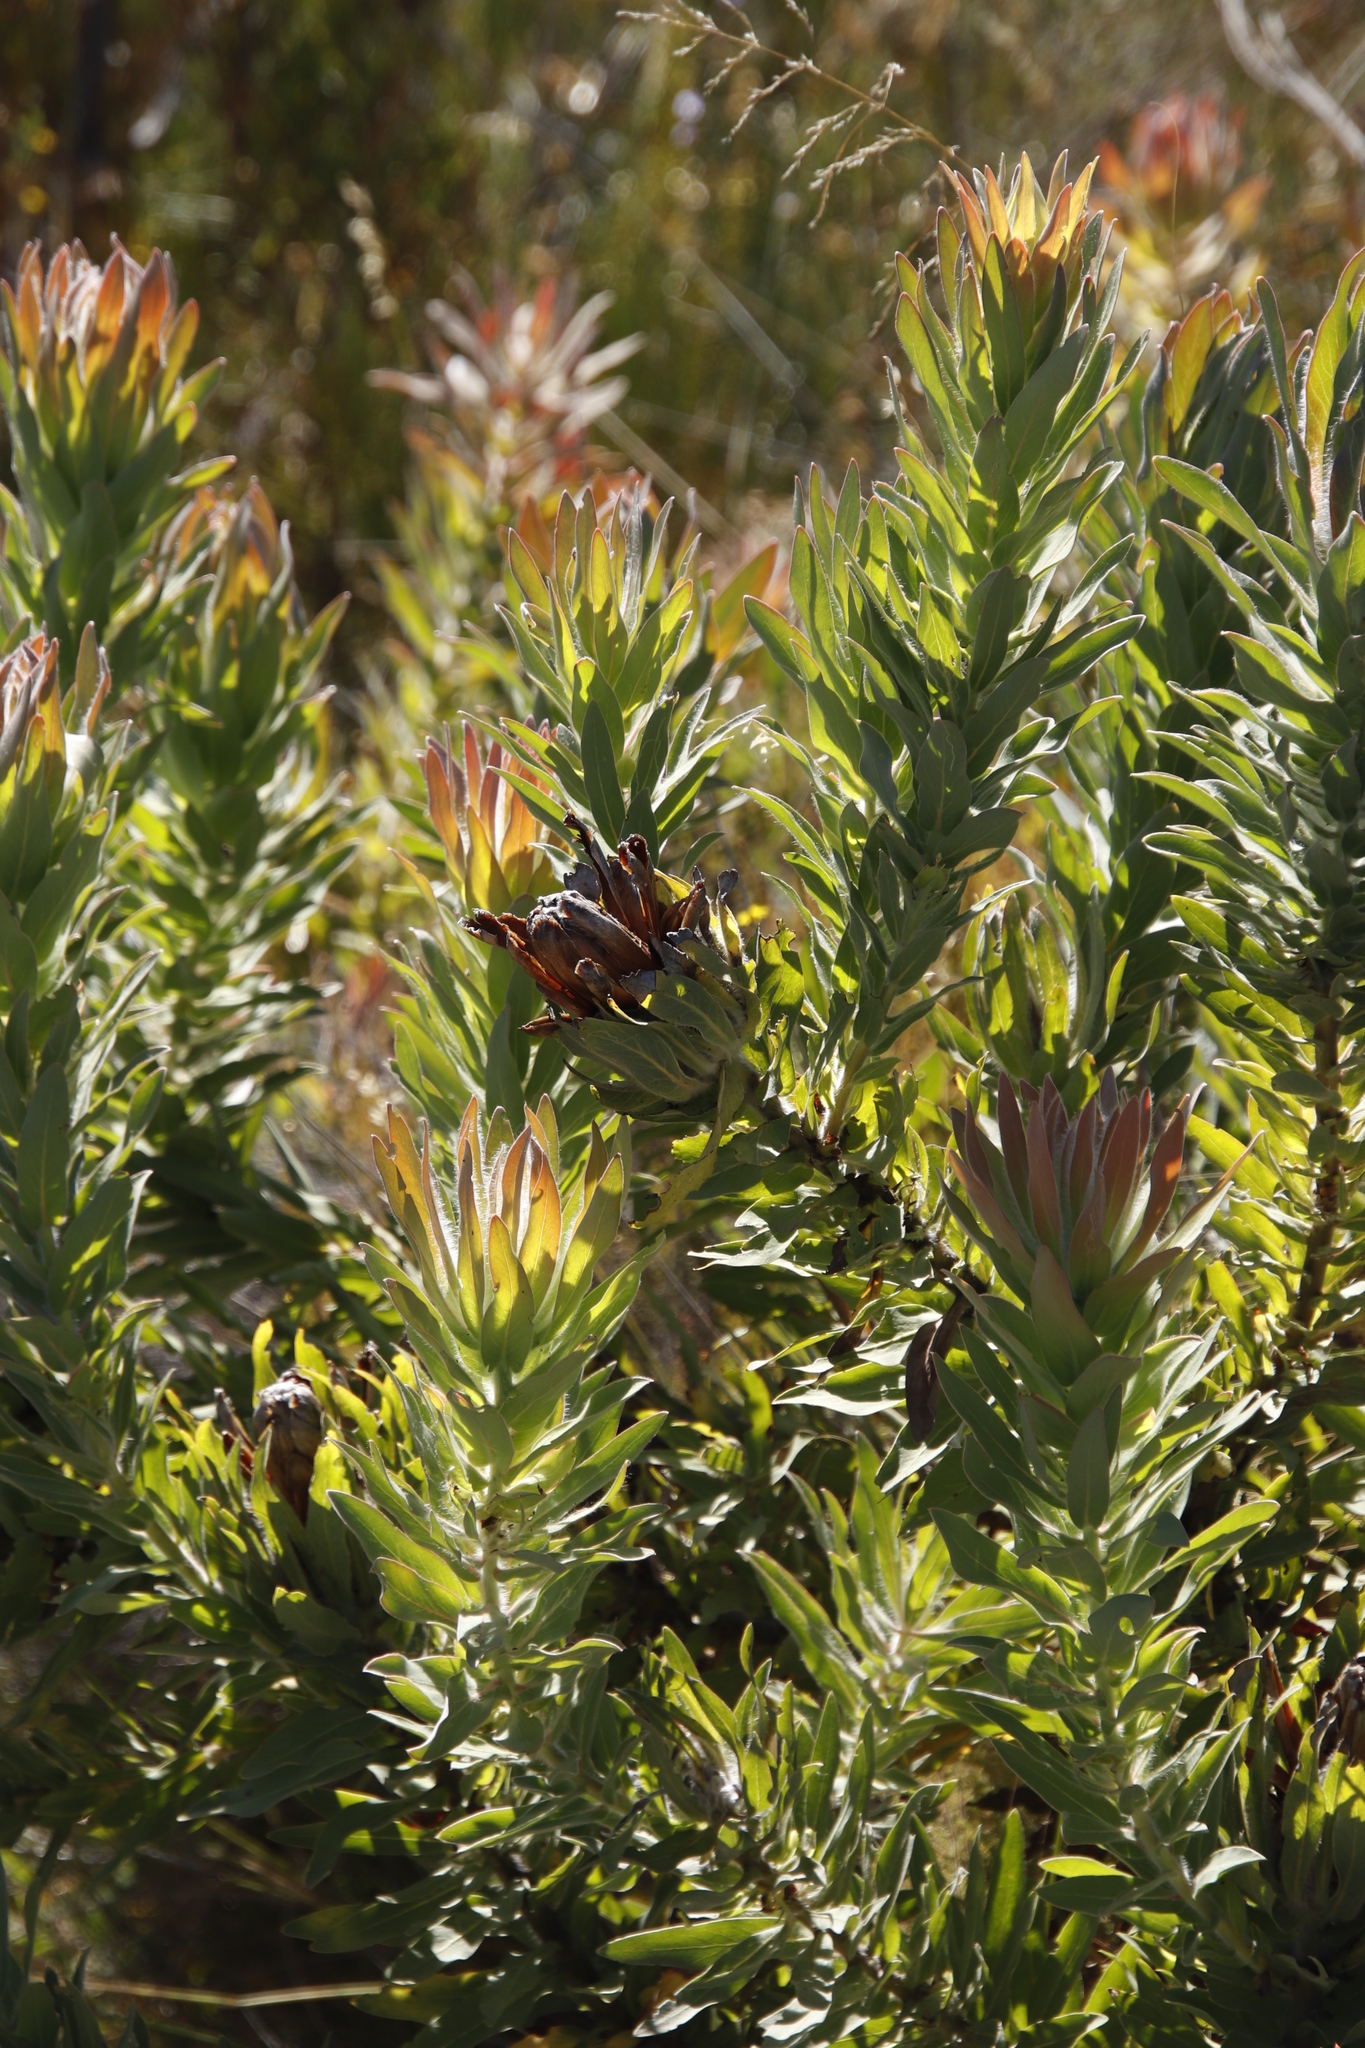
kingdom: Plantae
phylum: Tracheophyta
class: Magnoliopsida
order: Proteales
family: Proteaceae
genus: Protea
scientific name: Protea coronata
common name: Green sugarbush
